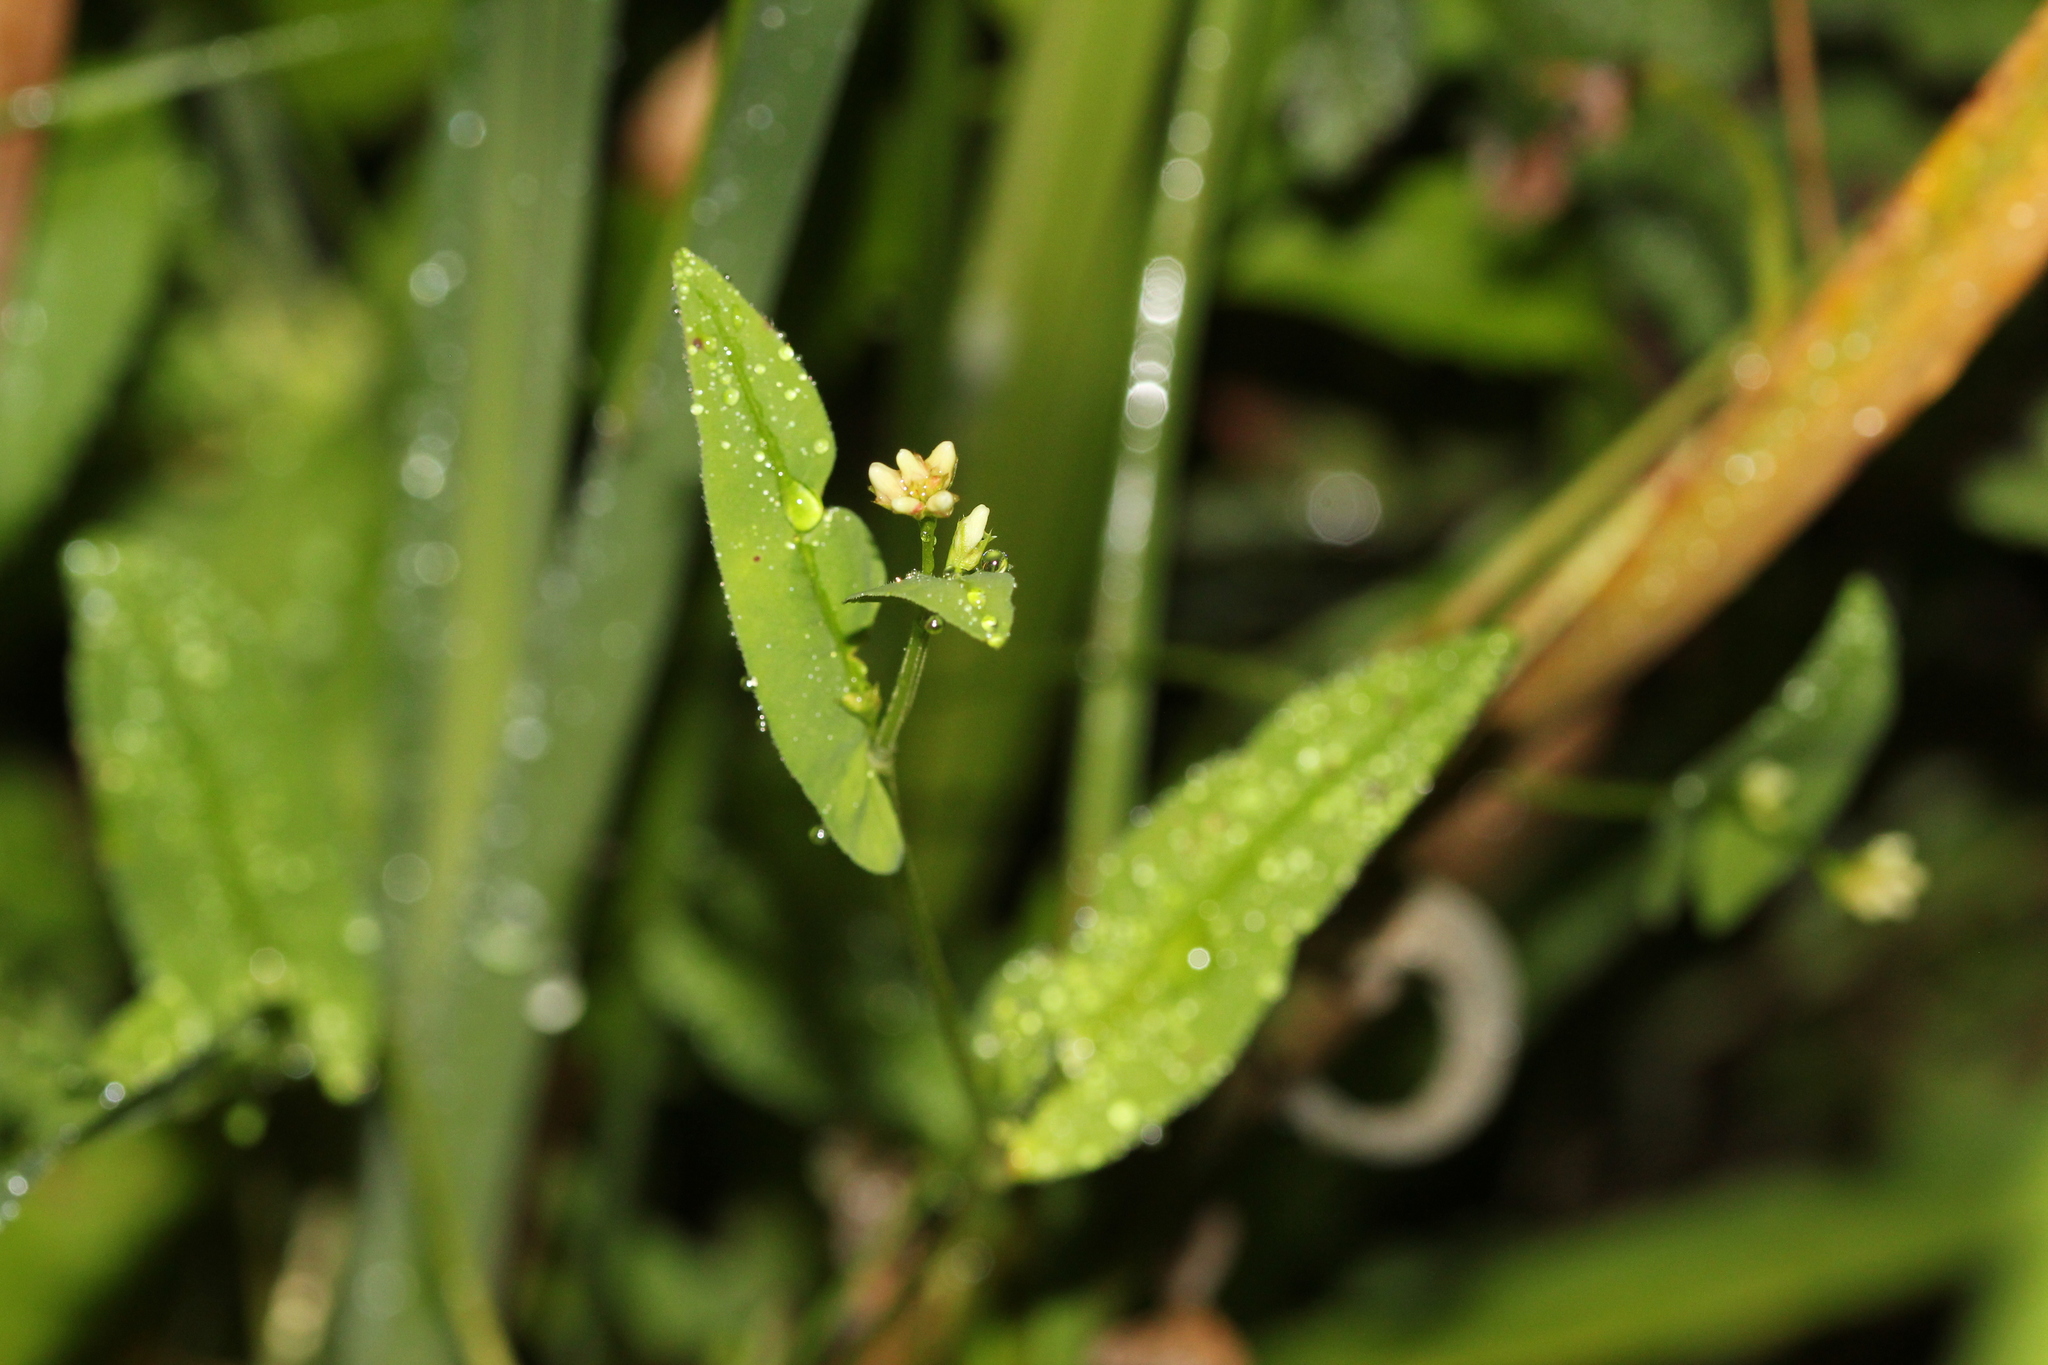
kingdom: Plantae
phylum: Tracheophyta
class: Magnoliopsida
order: Caryophyllales
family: Polygonaceae
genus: Persicaria
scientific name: Persicaria sagittata
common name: American tearthumb
